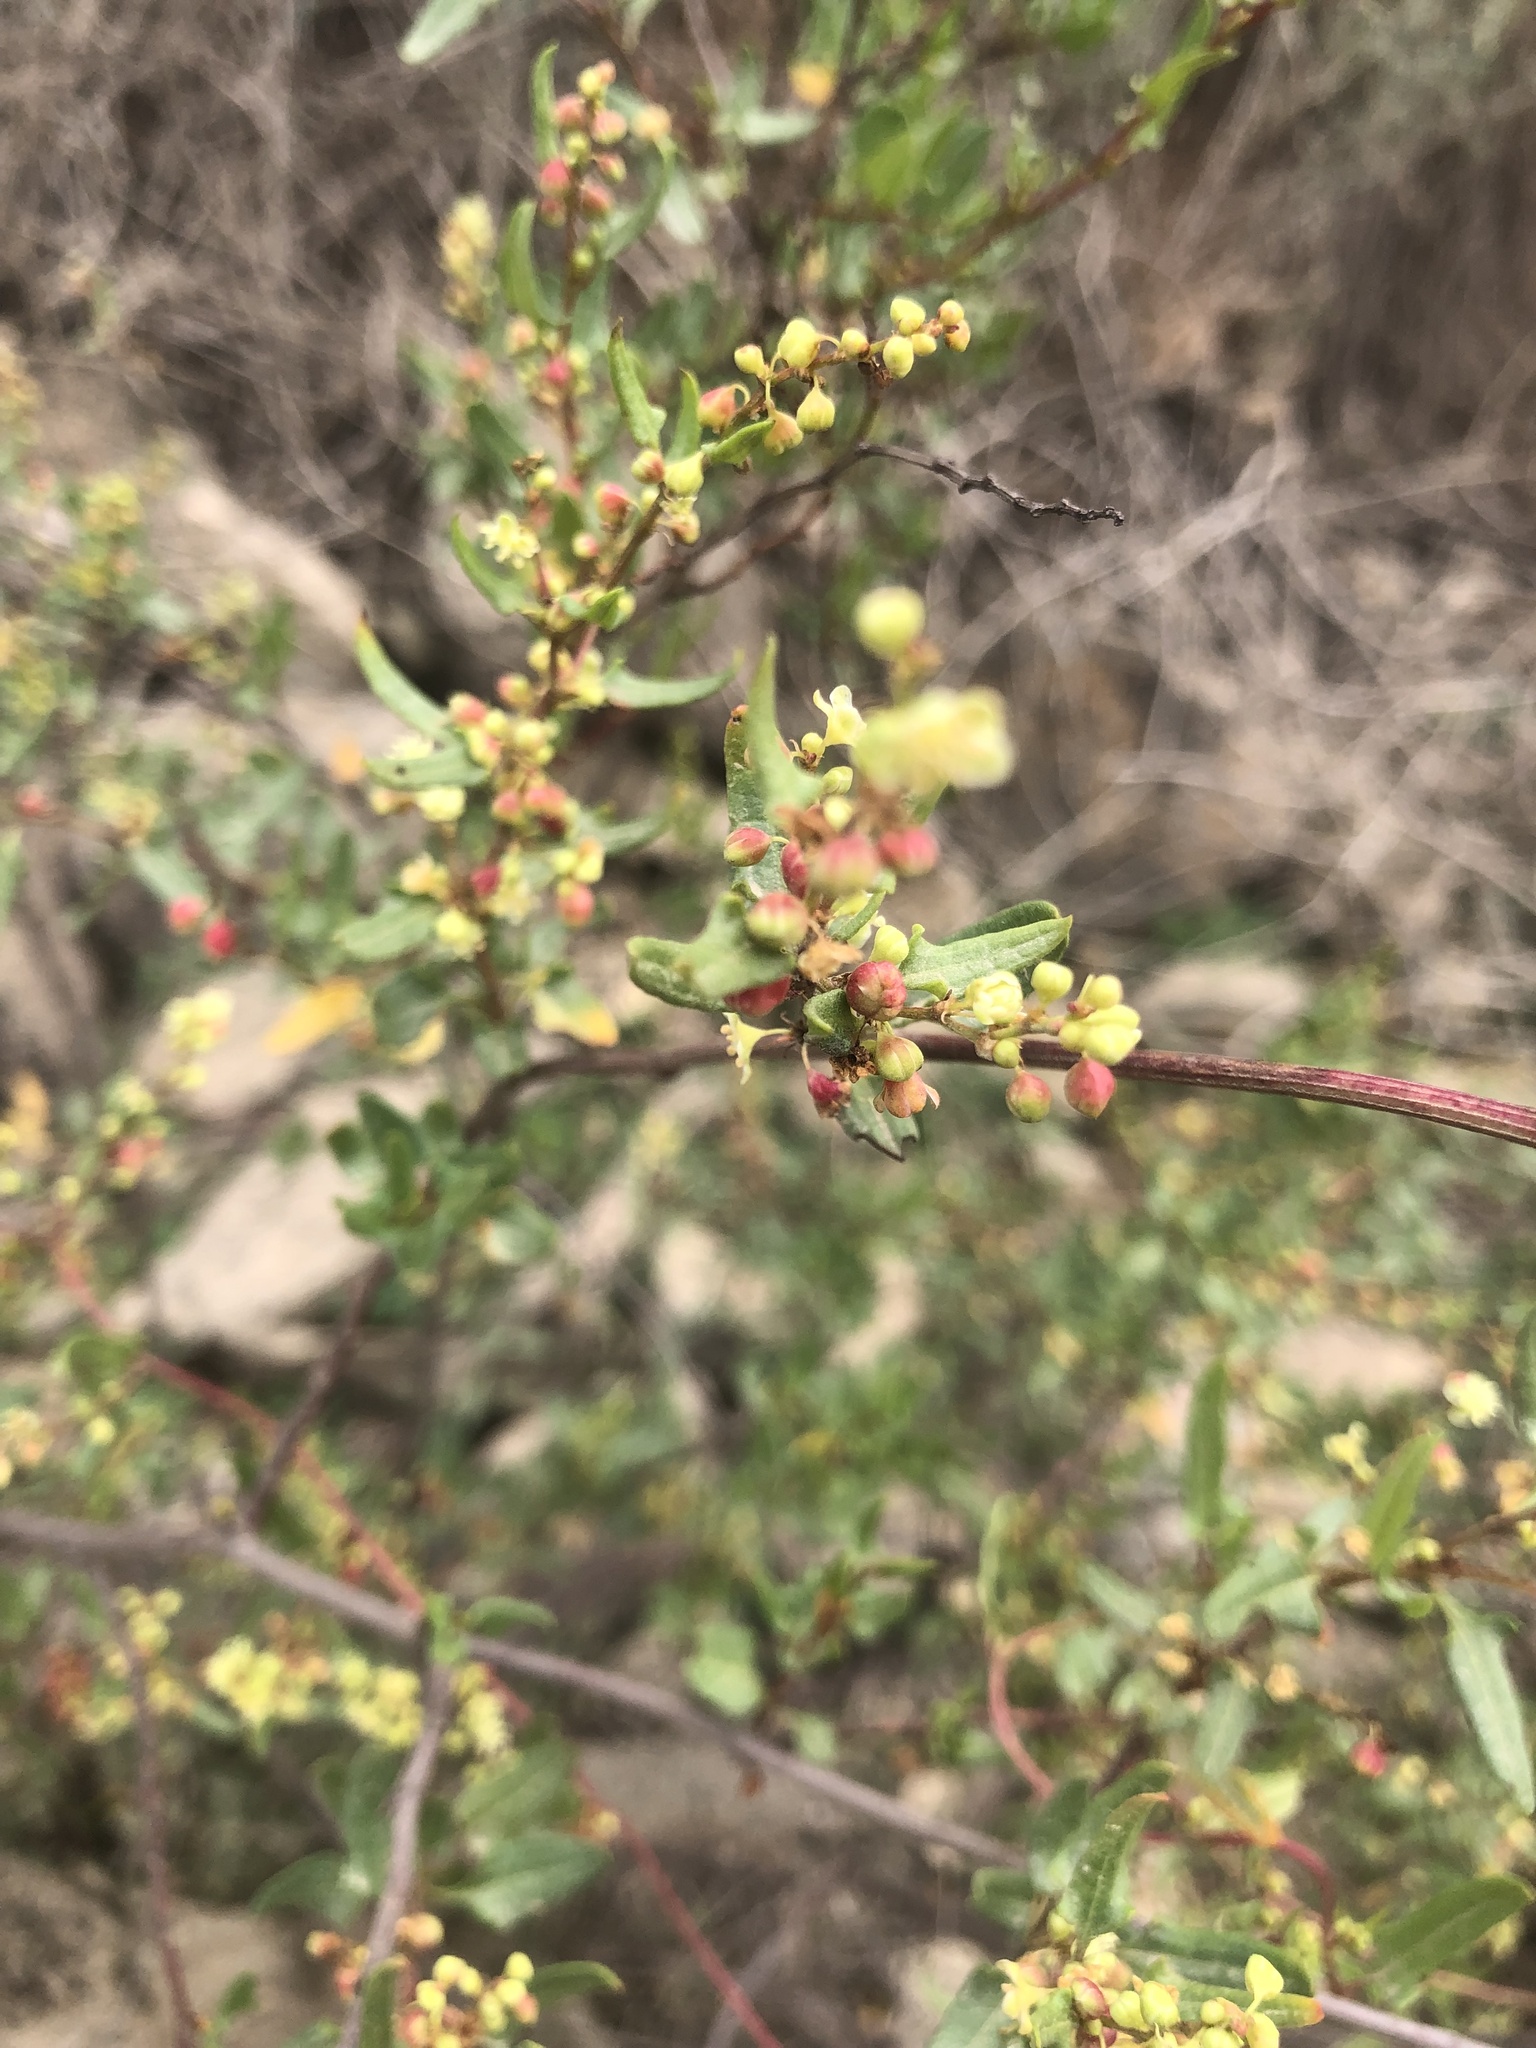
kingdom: Plantae
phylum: Tracheophyta
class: Magnoliopsida
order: Caryophyllales
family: Polygonaceae
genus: Muehlenbeckia
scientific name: Muehlenbeckia hastulata
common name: Wirevine
